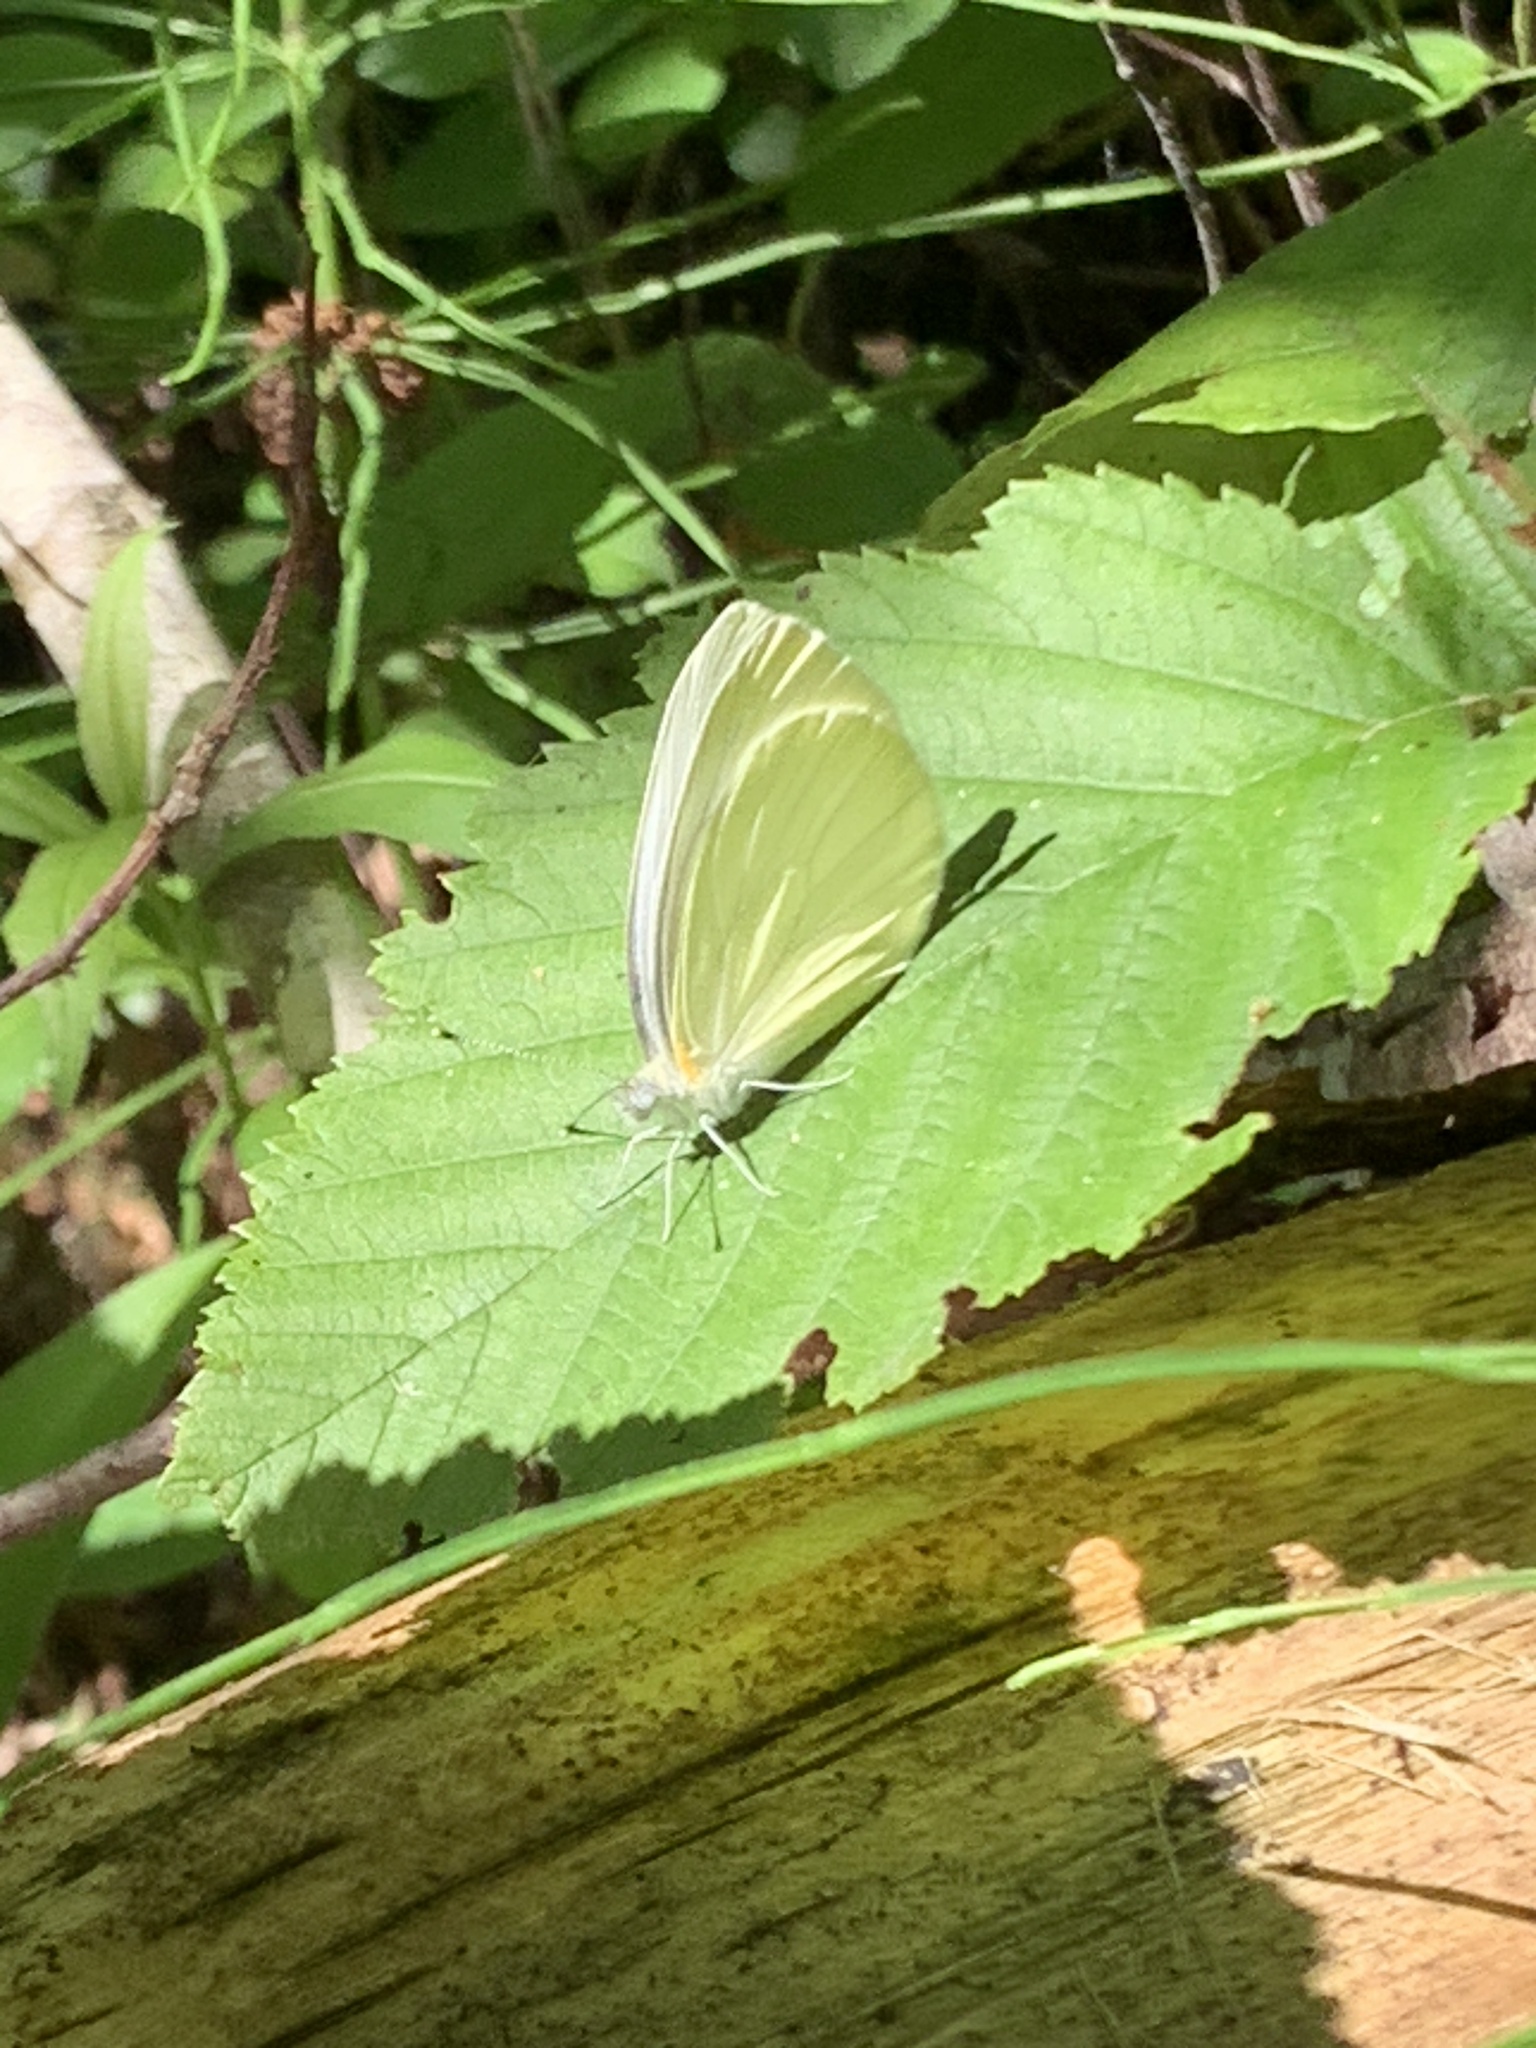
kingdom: Animalia
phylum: Arthropoda
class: Insecta
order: Lepidoptera
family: Pieridae
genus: Pieris
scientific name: Pieris oleracea
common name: Mustard white
